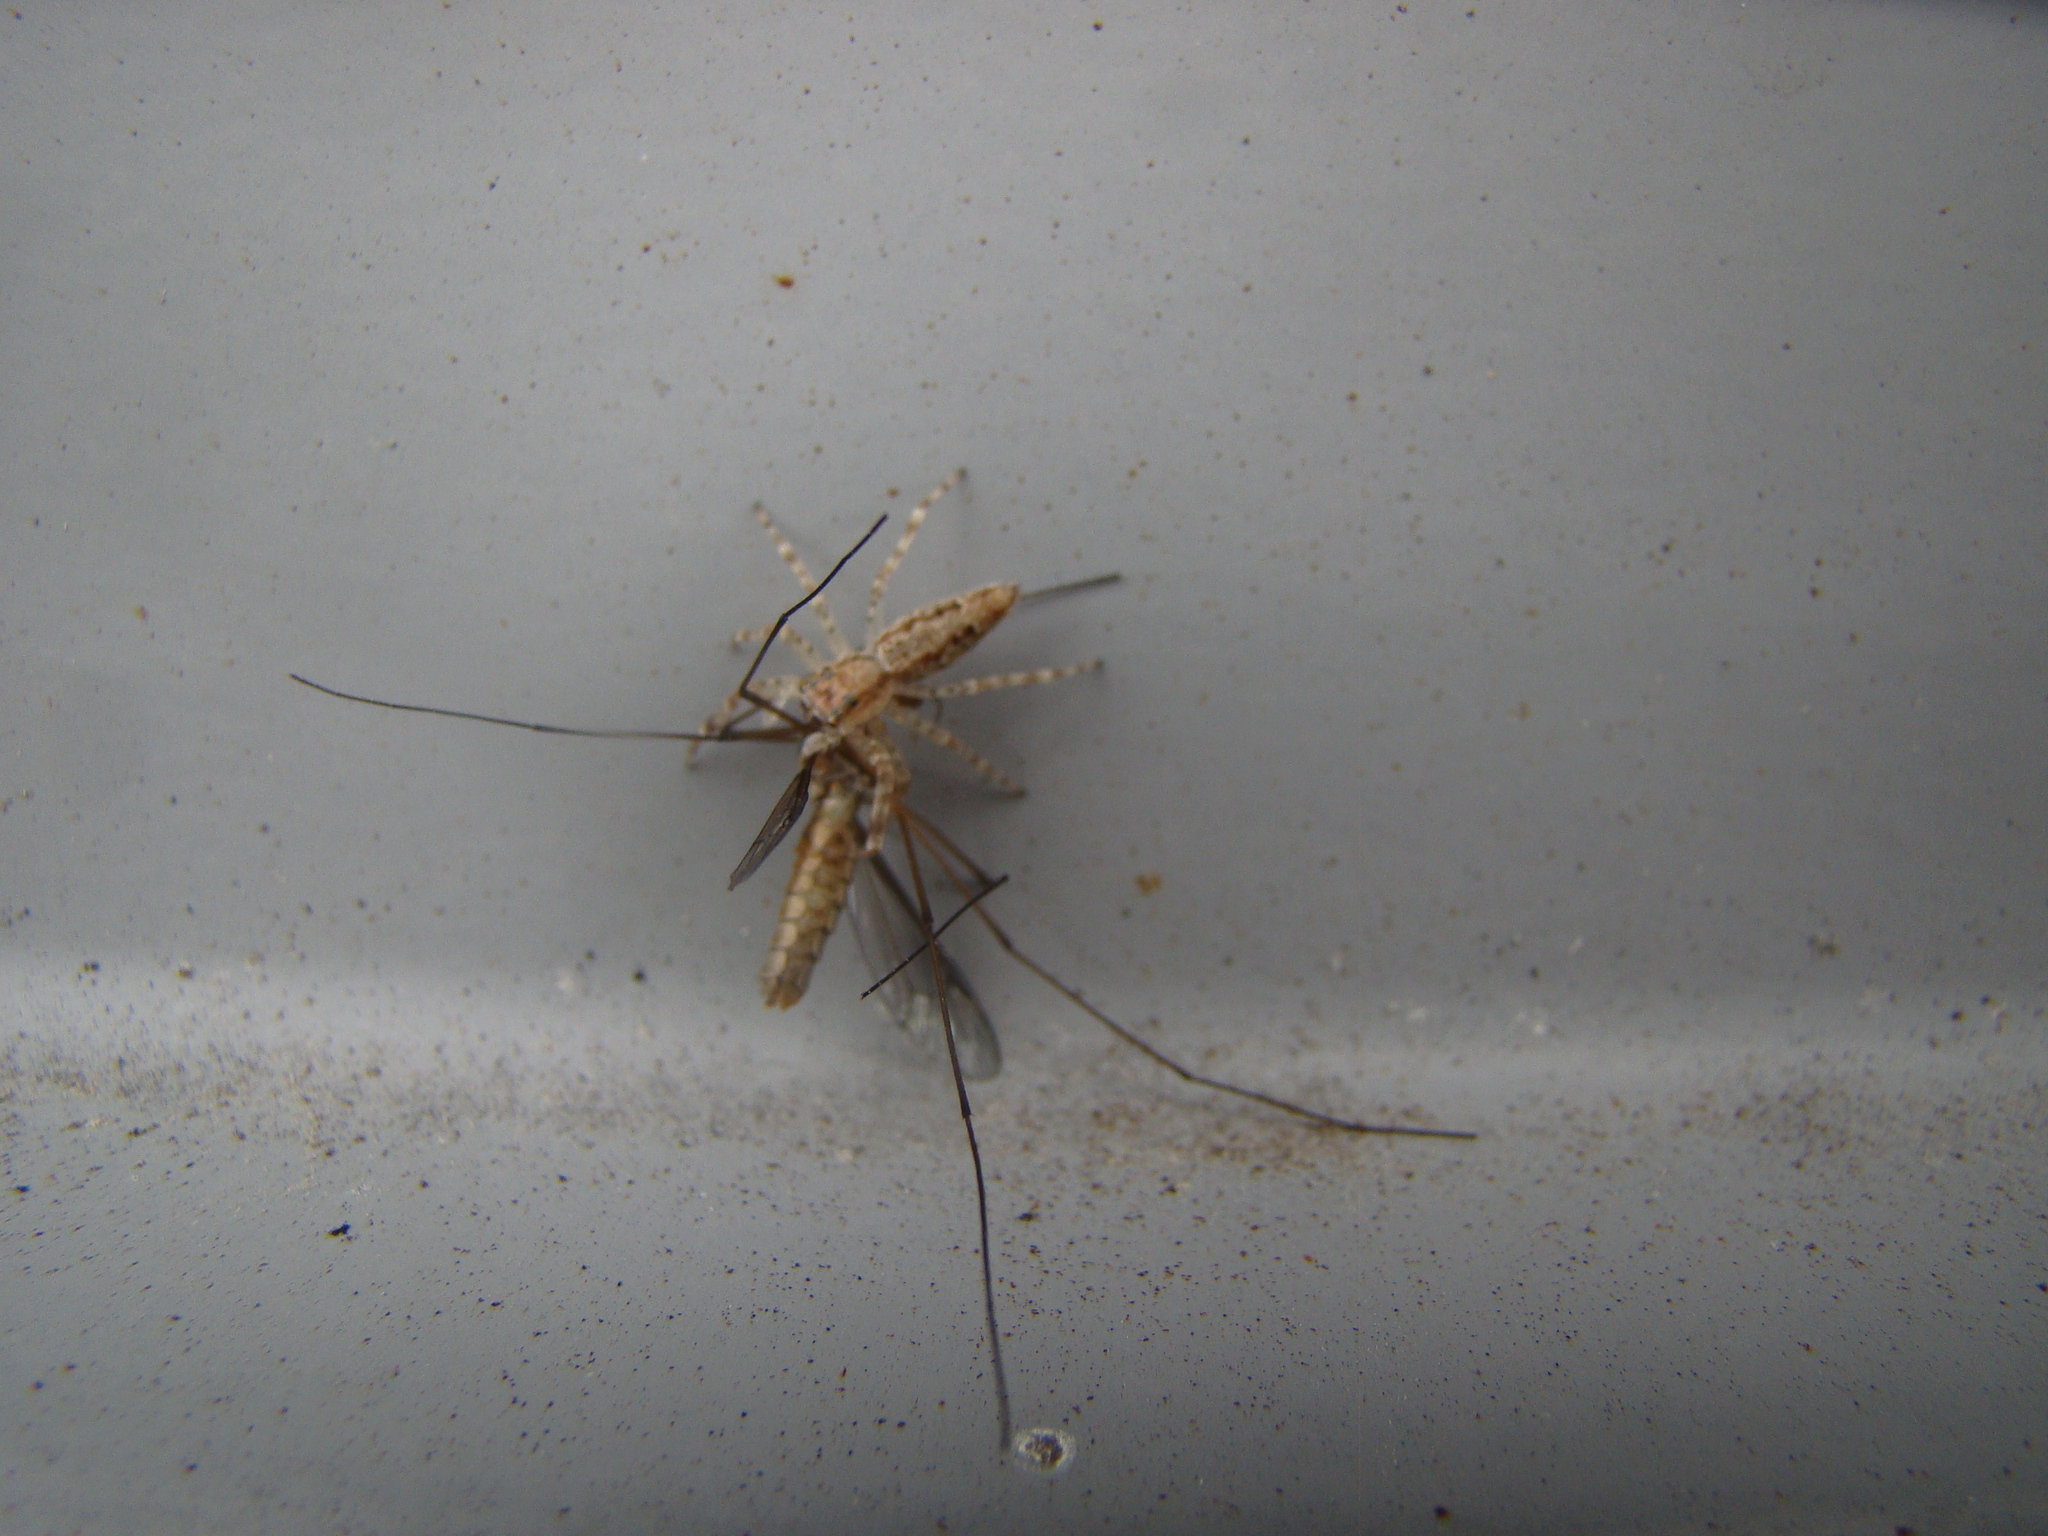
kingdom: Animalia
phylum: Arthropoda
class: Arachnida
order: Araneae
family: Salticidae
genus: Helpis
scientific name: Helpis minitabunda
